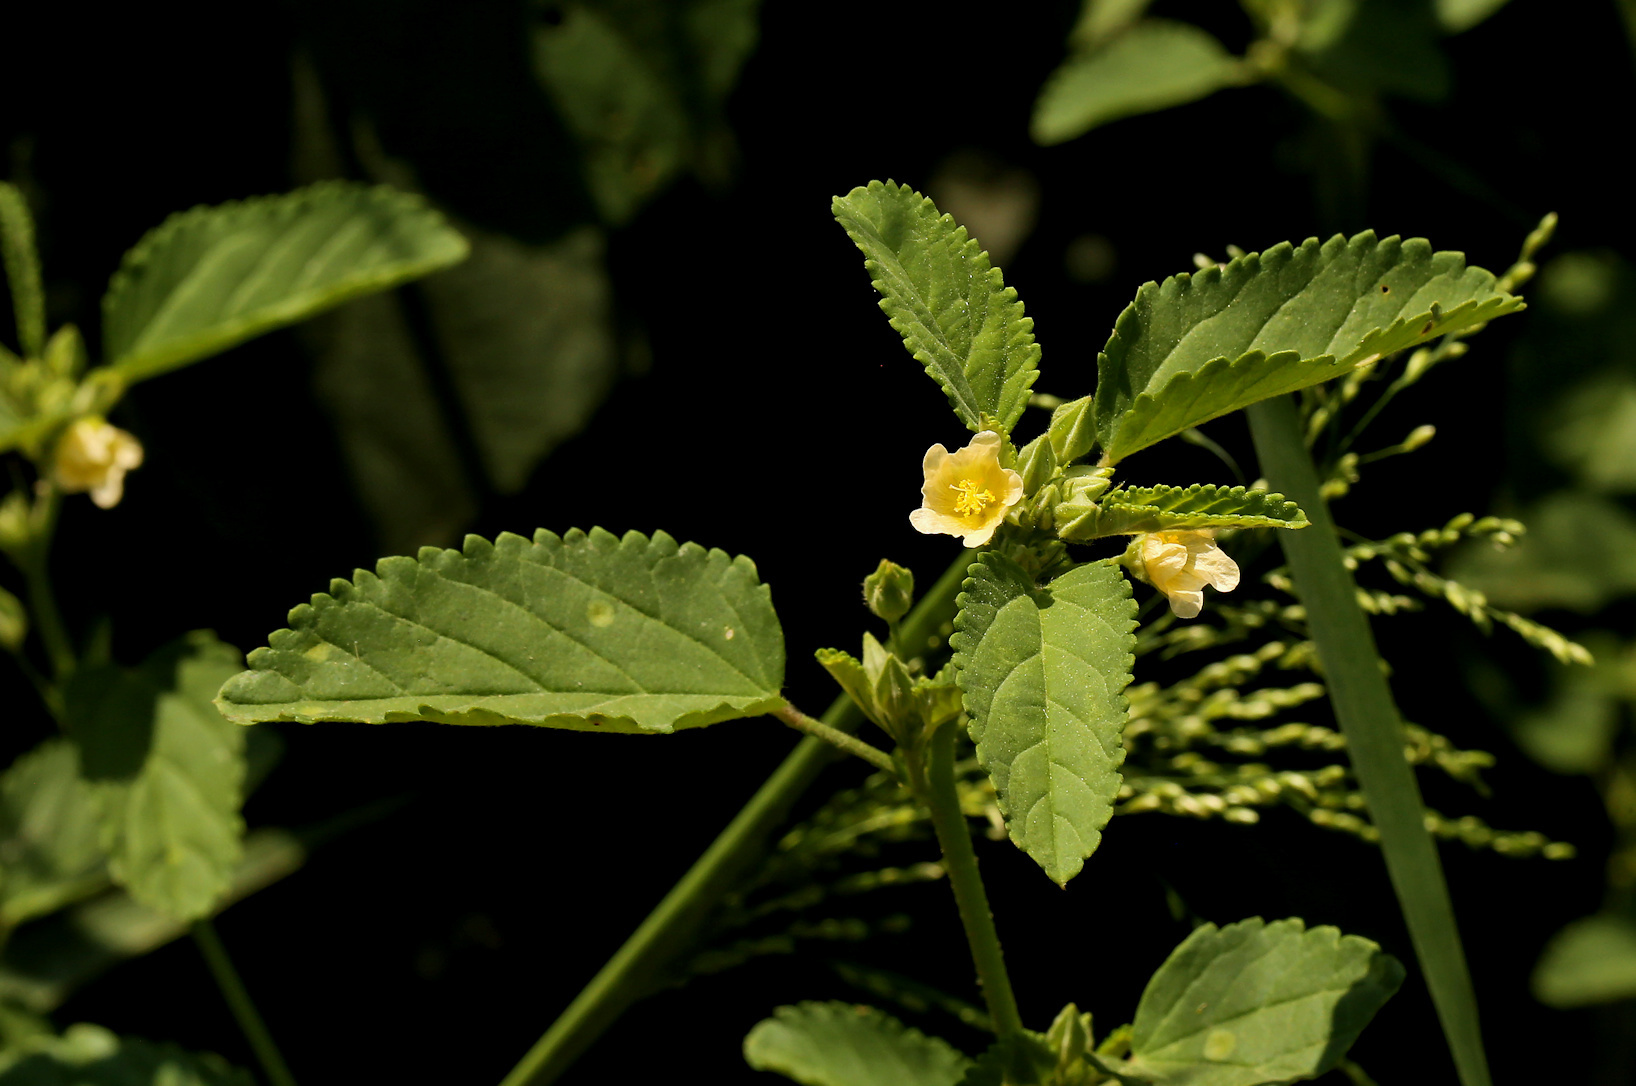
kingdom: Plantae
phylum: Tracheophyta
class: Magnoliopsida
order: Malvales
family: Malvaceae
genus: Sida
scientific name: Sida alba
